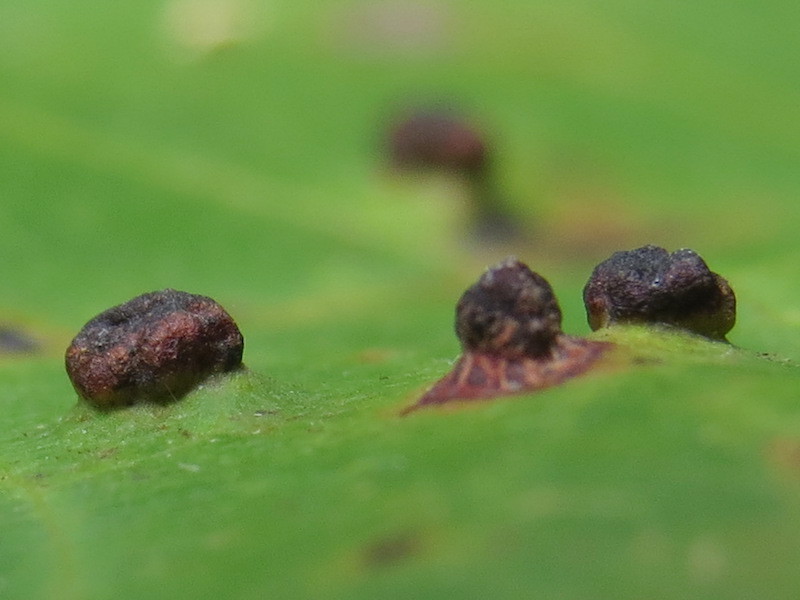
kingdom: Animalia
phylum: Arthropoda
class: Arachnida
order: Trombidiformes
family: Eriophyidae
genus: Vasates
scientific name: Vasates quadripedes
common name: Maple bladder gall mite
